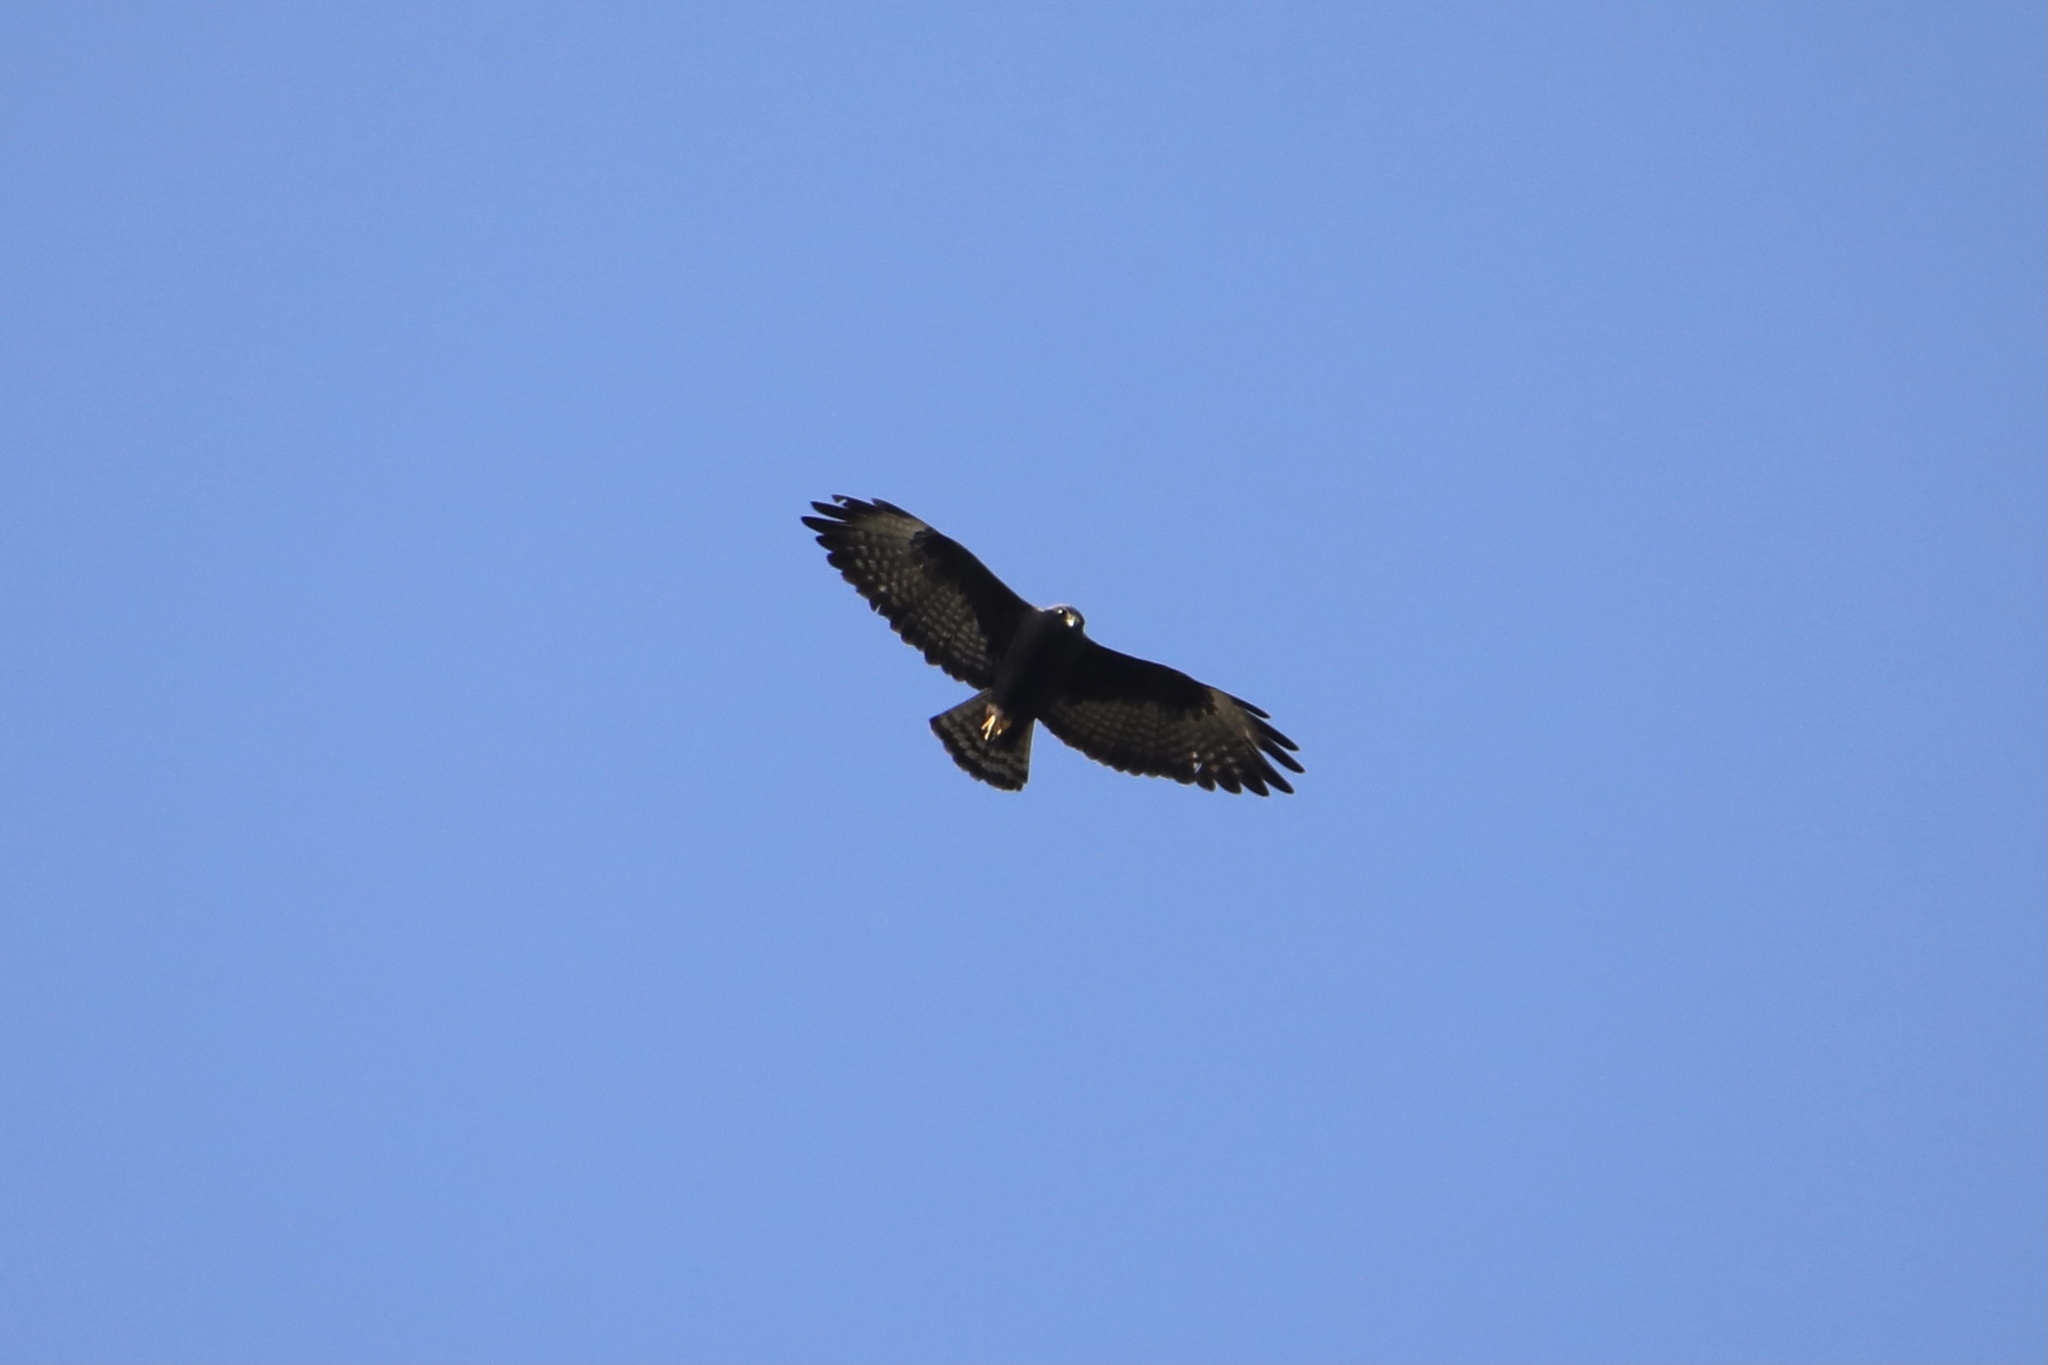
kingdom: Animalia
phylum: Chordata
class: Aves
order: Accipitriformes
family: Accipitridae
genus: Buteo
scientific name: Buteo brachyurus
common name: Short-tailed hawk
